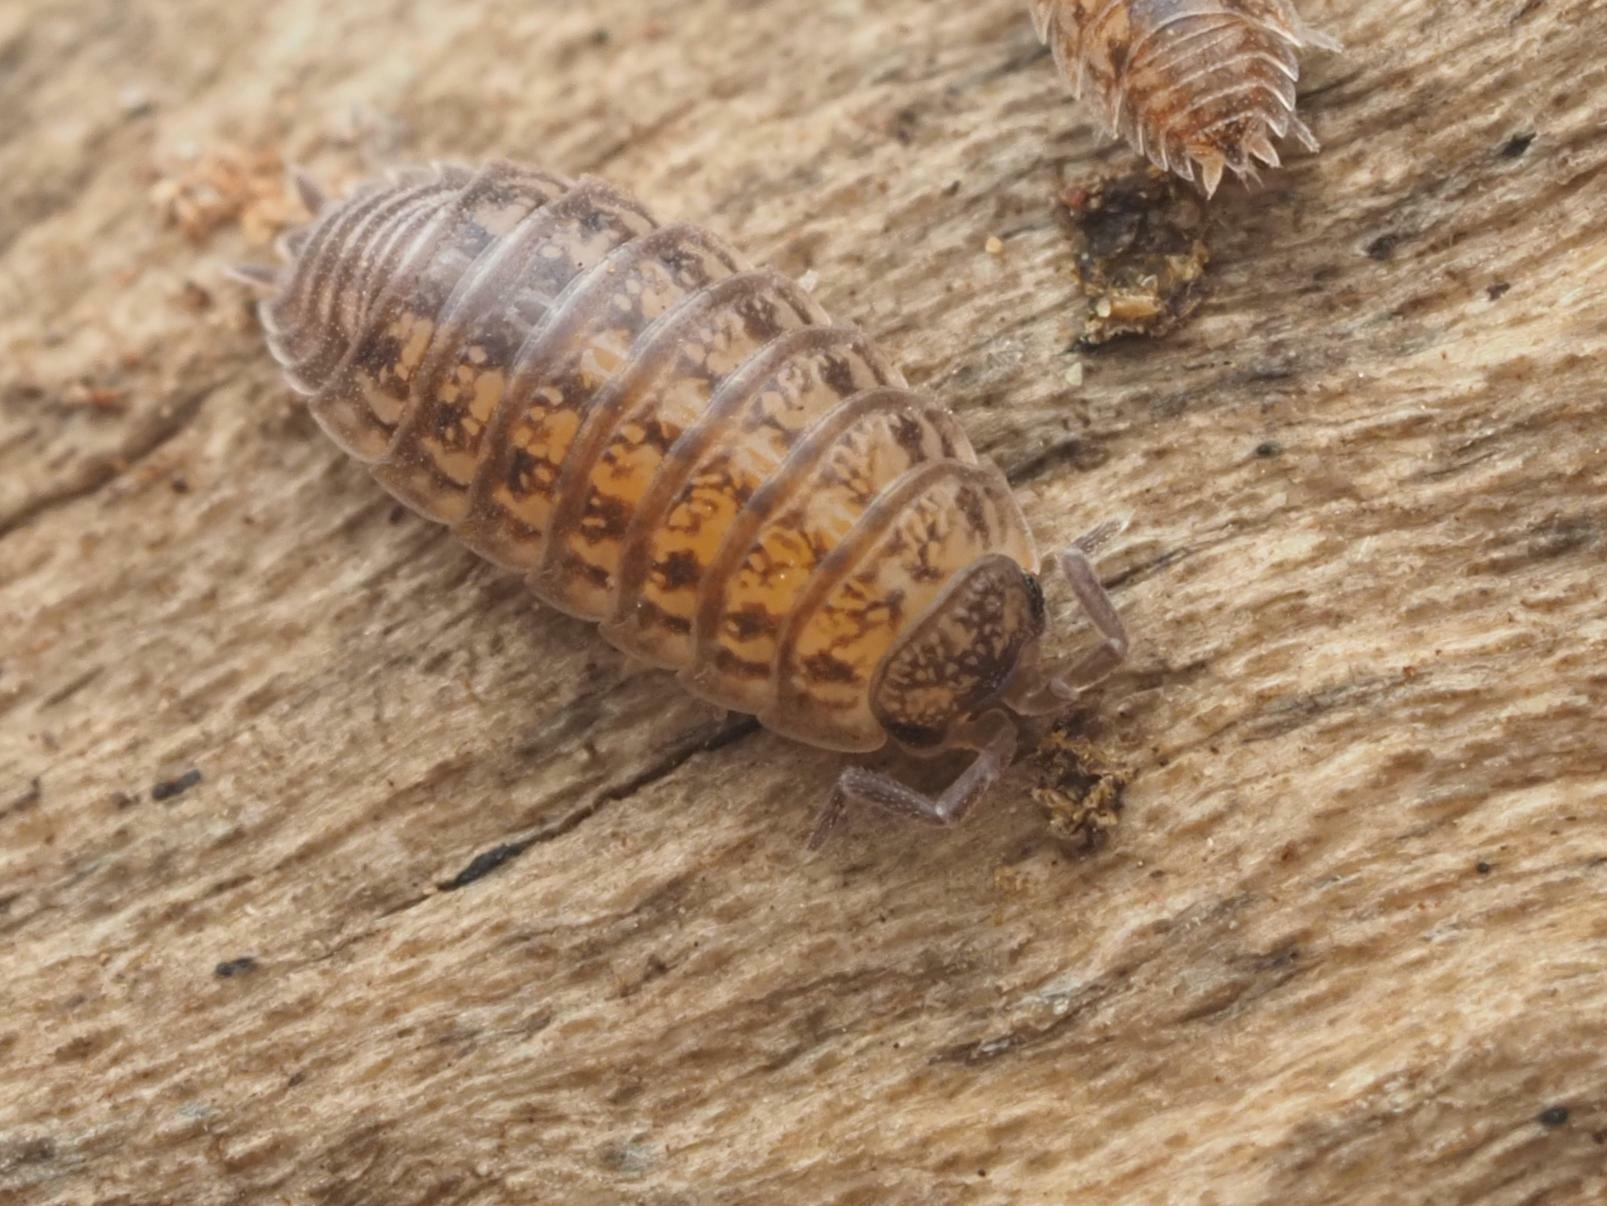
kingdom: Animalia
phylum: Arthropoda
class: Malacostraca
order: Isopoda
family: Trachelipodidae
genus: Trachelipus
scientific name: Trachelipus rathkii
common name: Isopod
